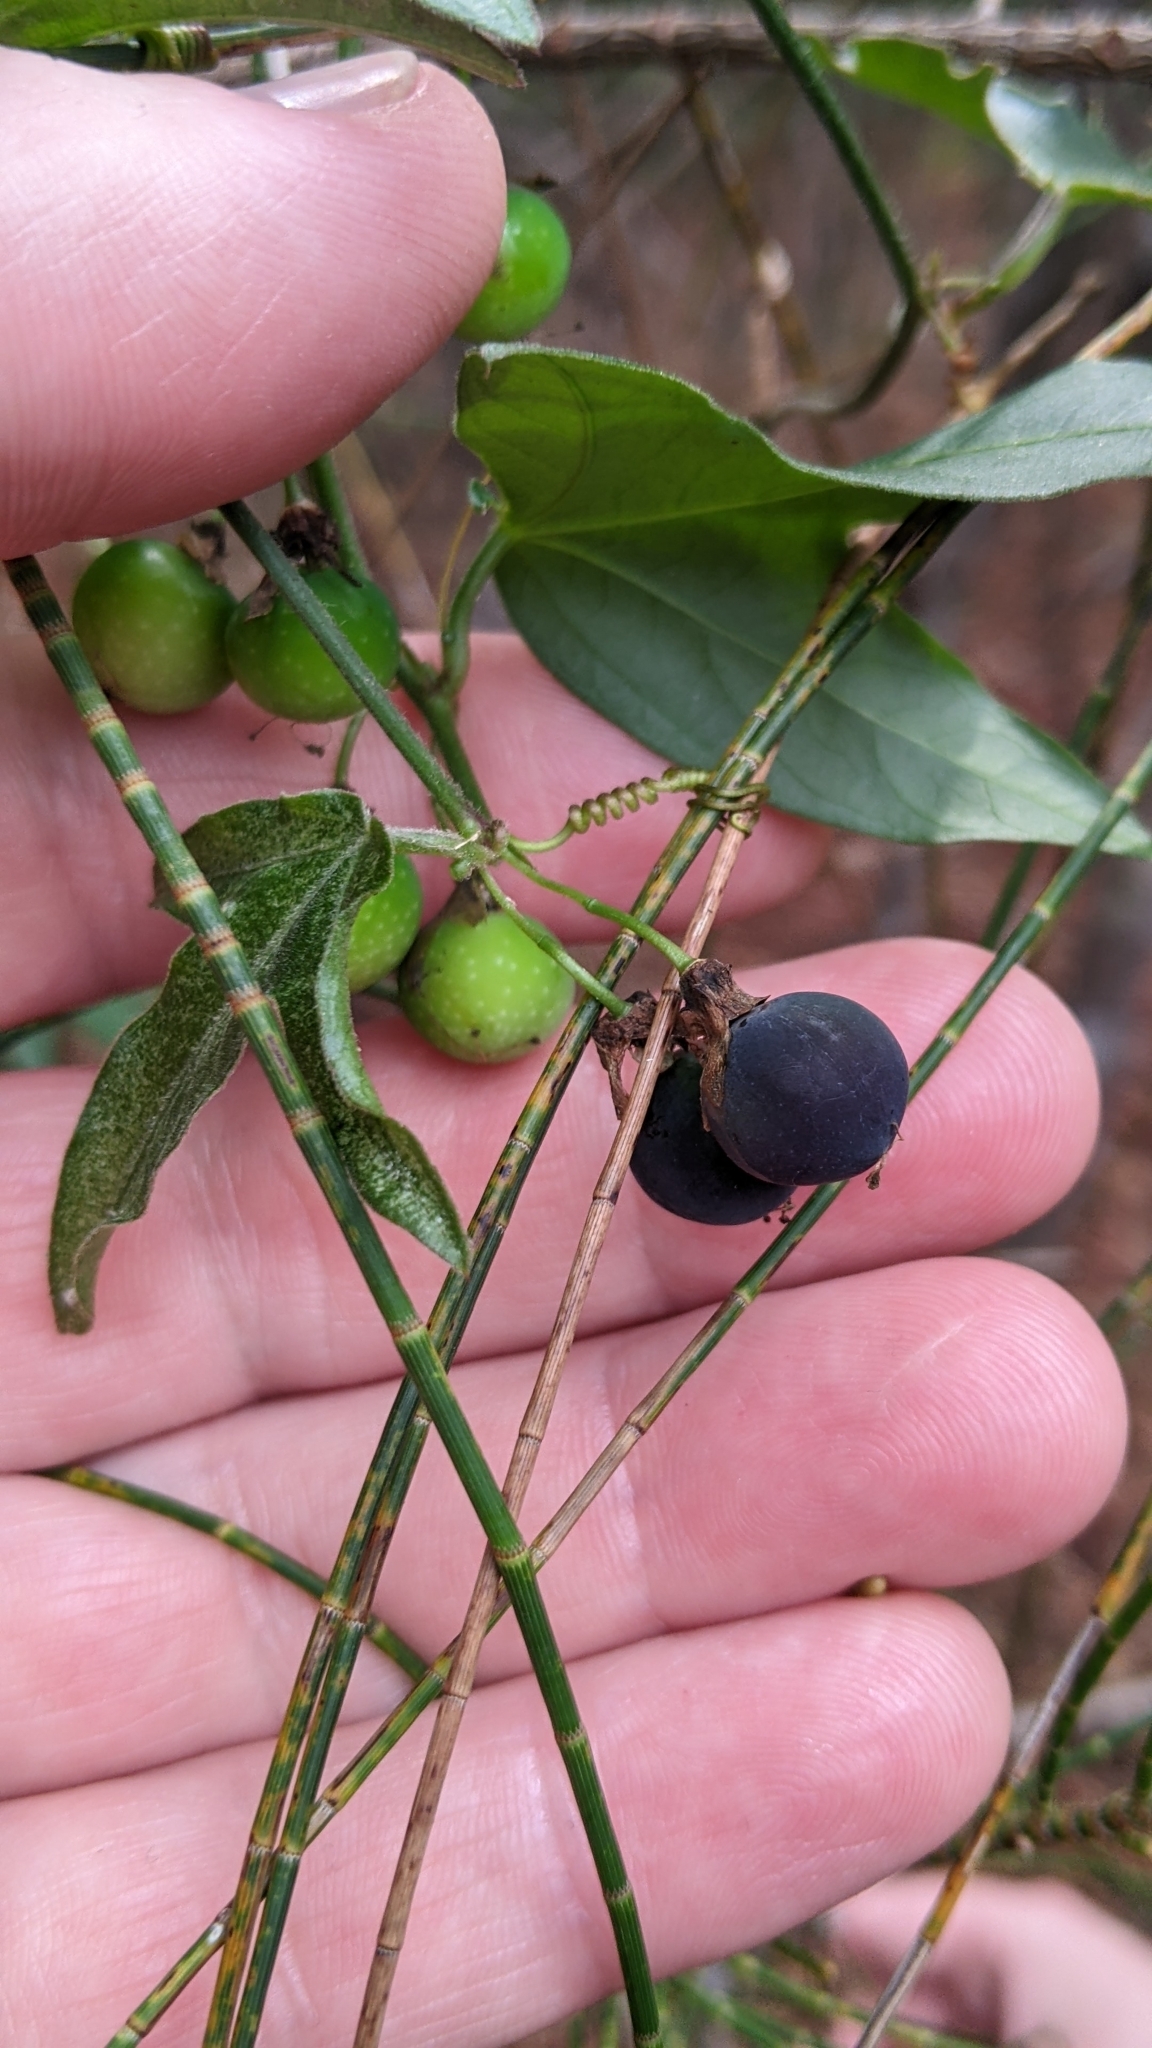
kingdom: Plantae
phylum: Tracheophyta
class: Magnoliopsida
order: Malpighiales
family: Passifloraceae
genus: Passiflora
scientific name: Passiflora suberosa
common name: Wild passionfruit
